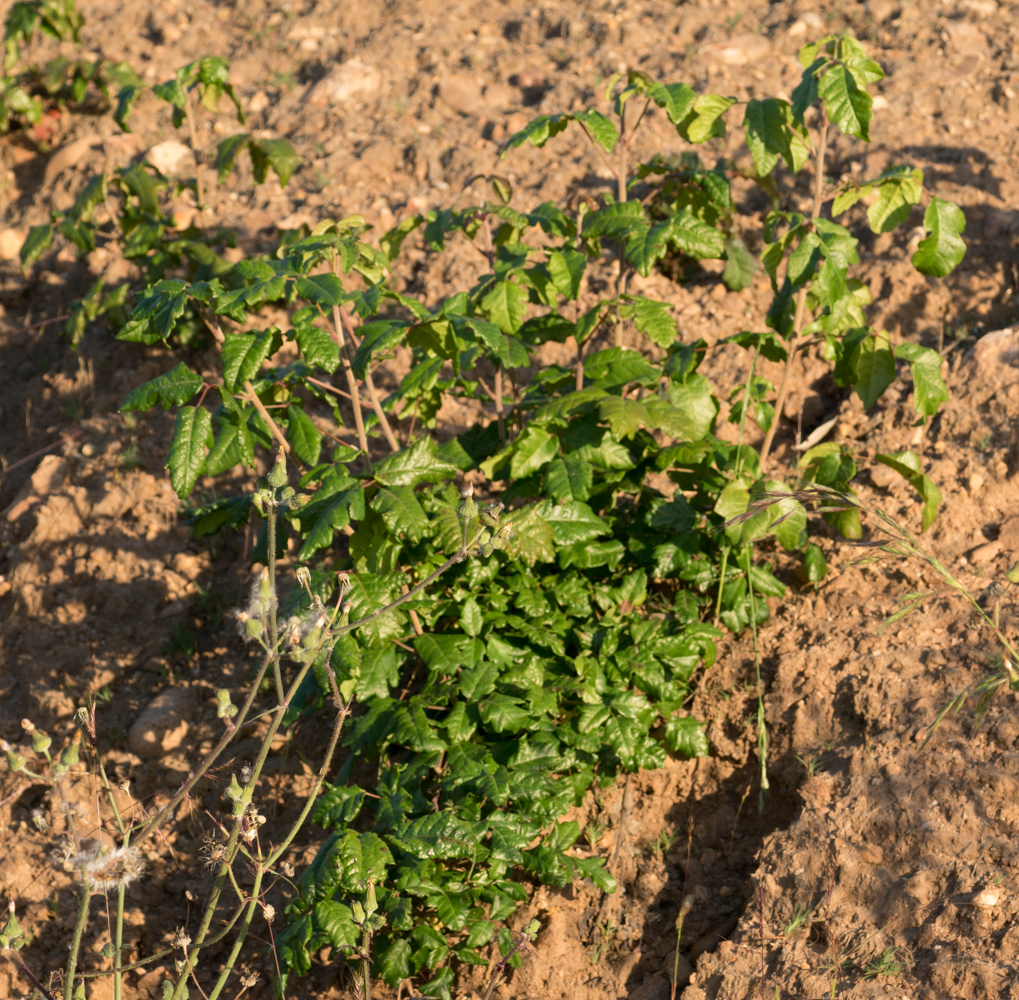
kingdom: Plantae
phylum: Tracheophyta
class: Magnoliopsida
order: Sapindales
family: Anacardiaceae
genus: Toxicodendron
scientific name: Toxicodendron diversilobum
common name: Pacific poison-oak
